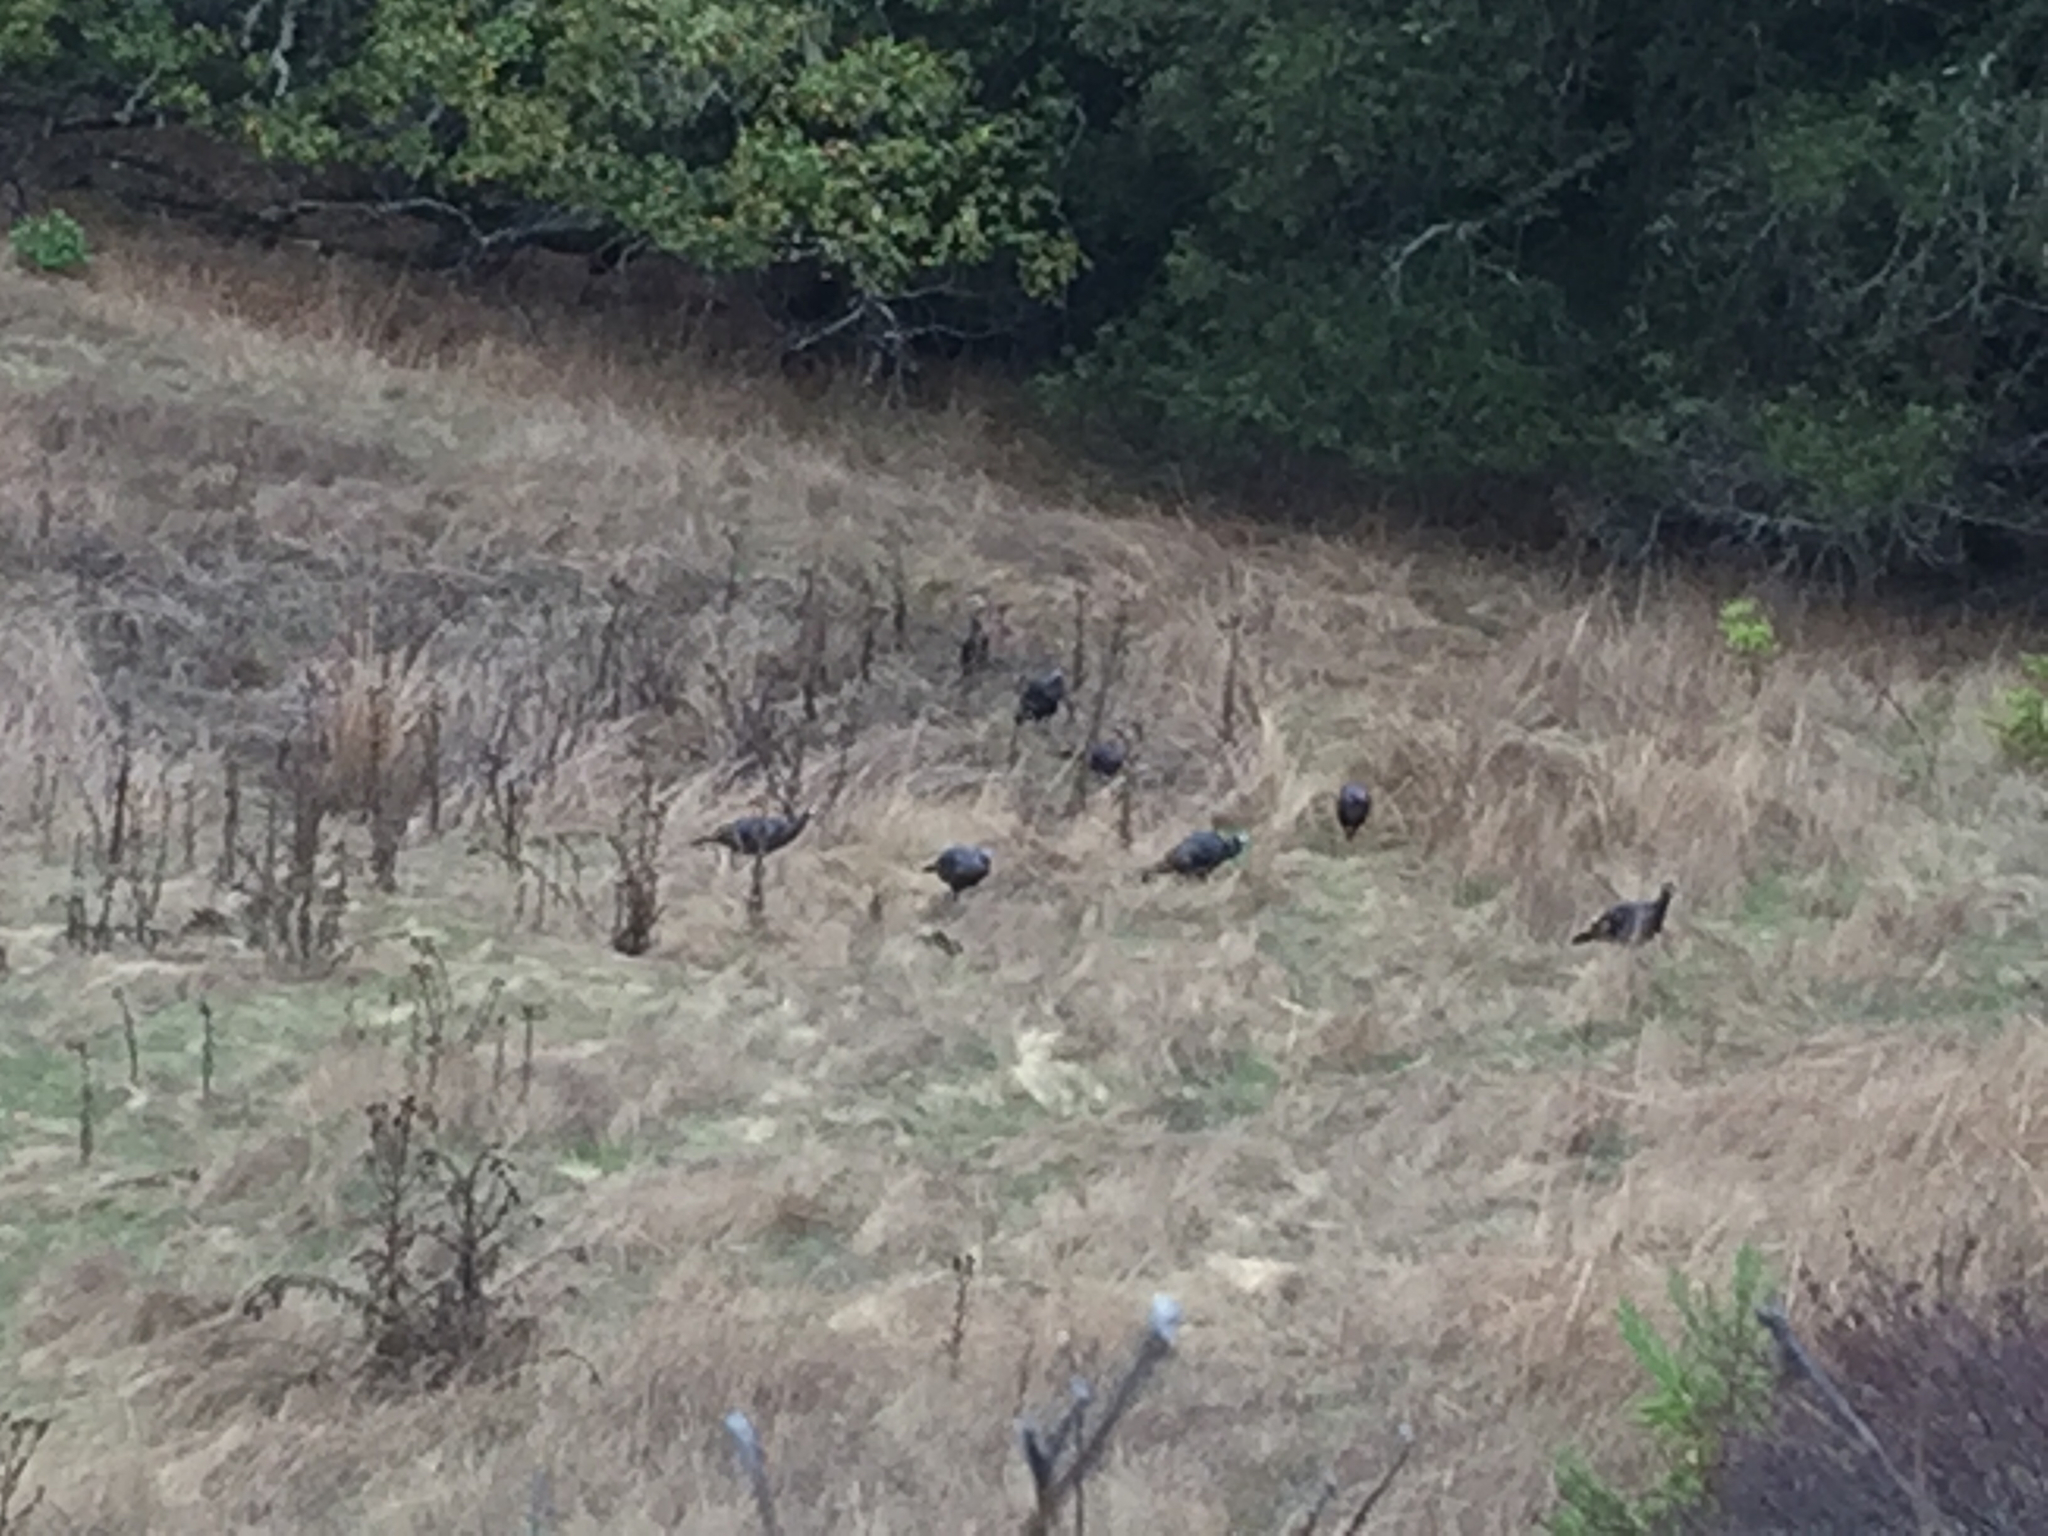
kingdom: Animalia
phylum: Chordata
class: Aves
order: Galliformes
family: Phasianidae
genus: Meleagris
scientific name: Meleagris gallopavo
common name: Wild turkey
